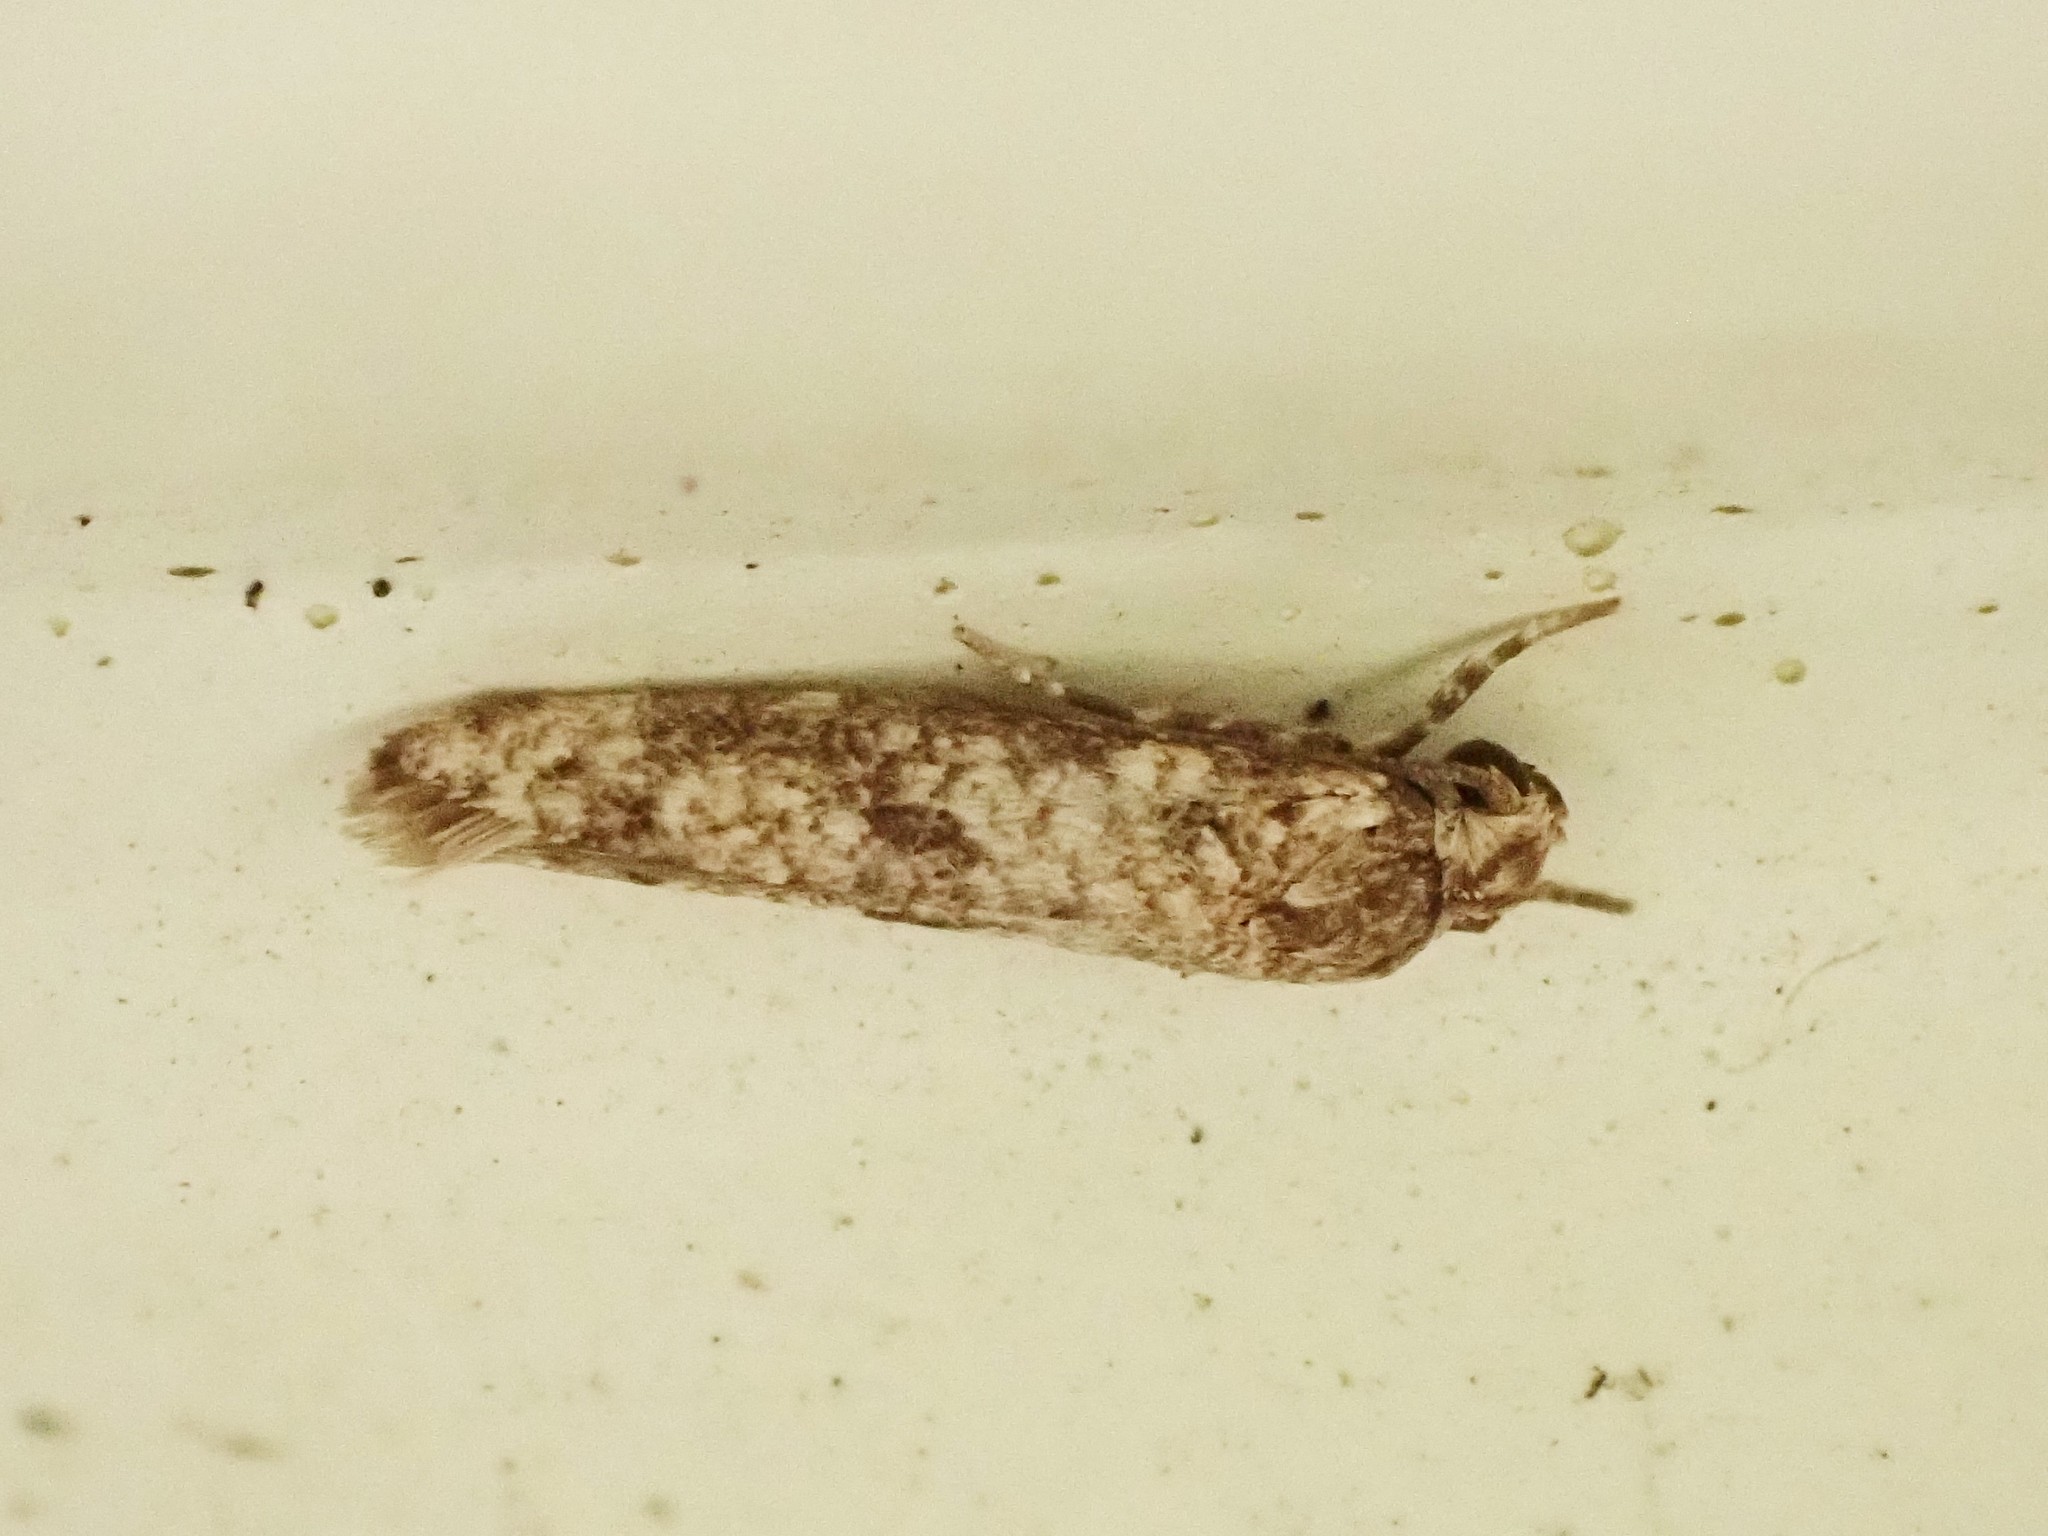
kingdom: Animalia
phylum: Arthropoda
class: Insecta
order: Lepidoptera
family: Praydidae
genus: Prays
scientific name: Prays nephelomima
